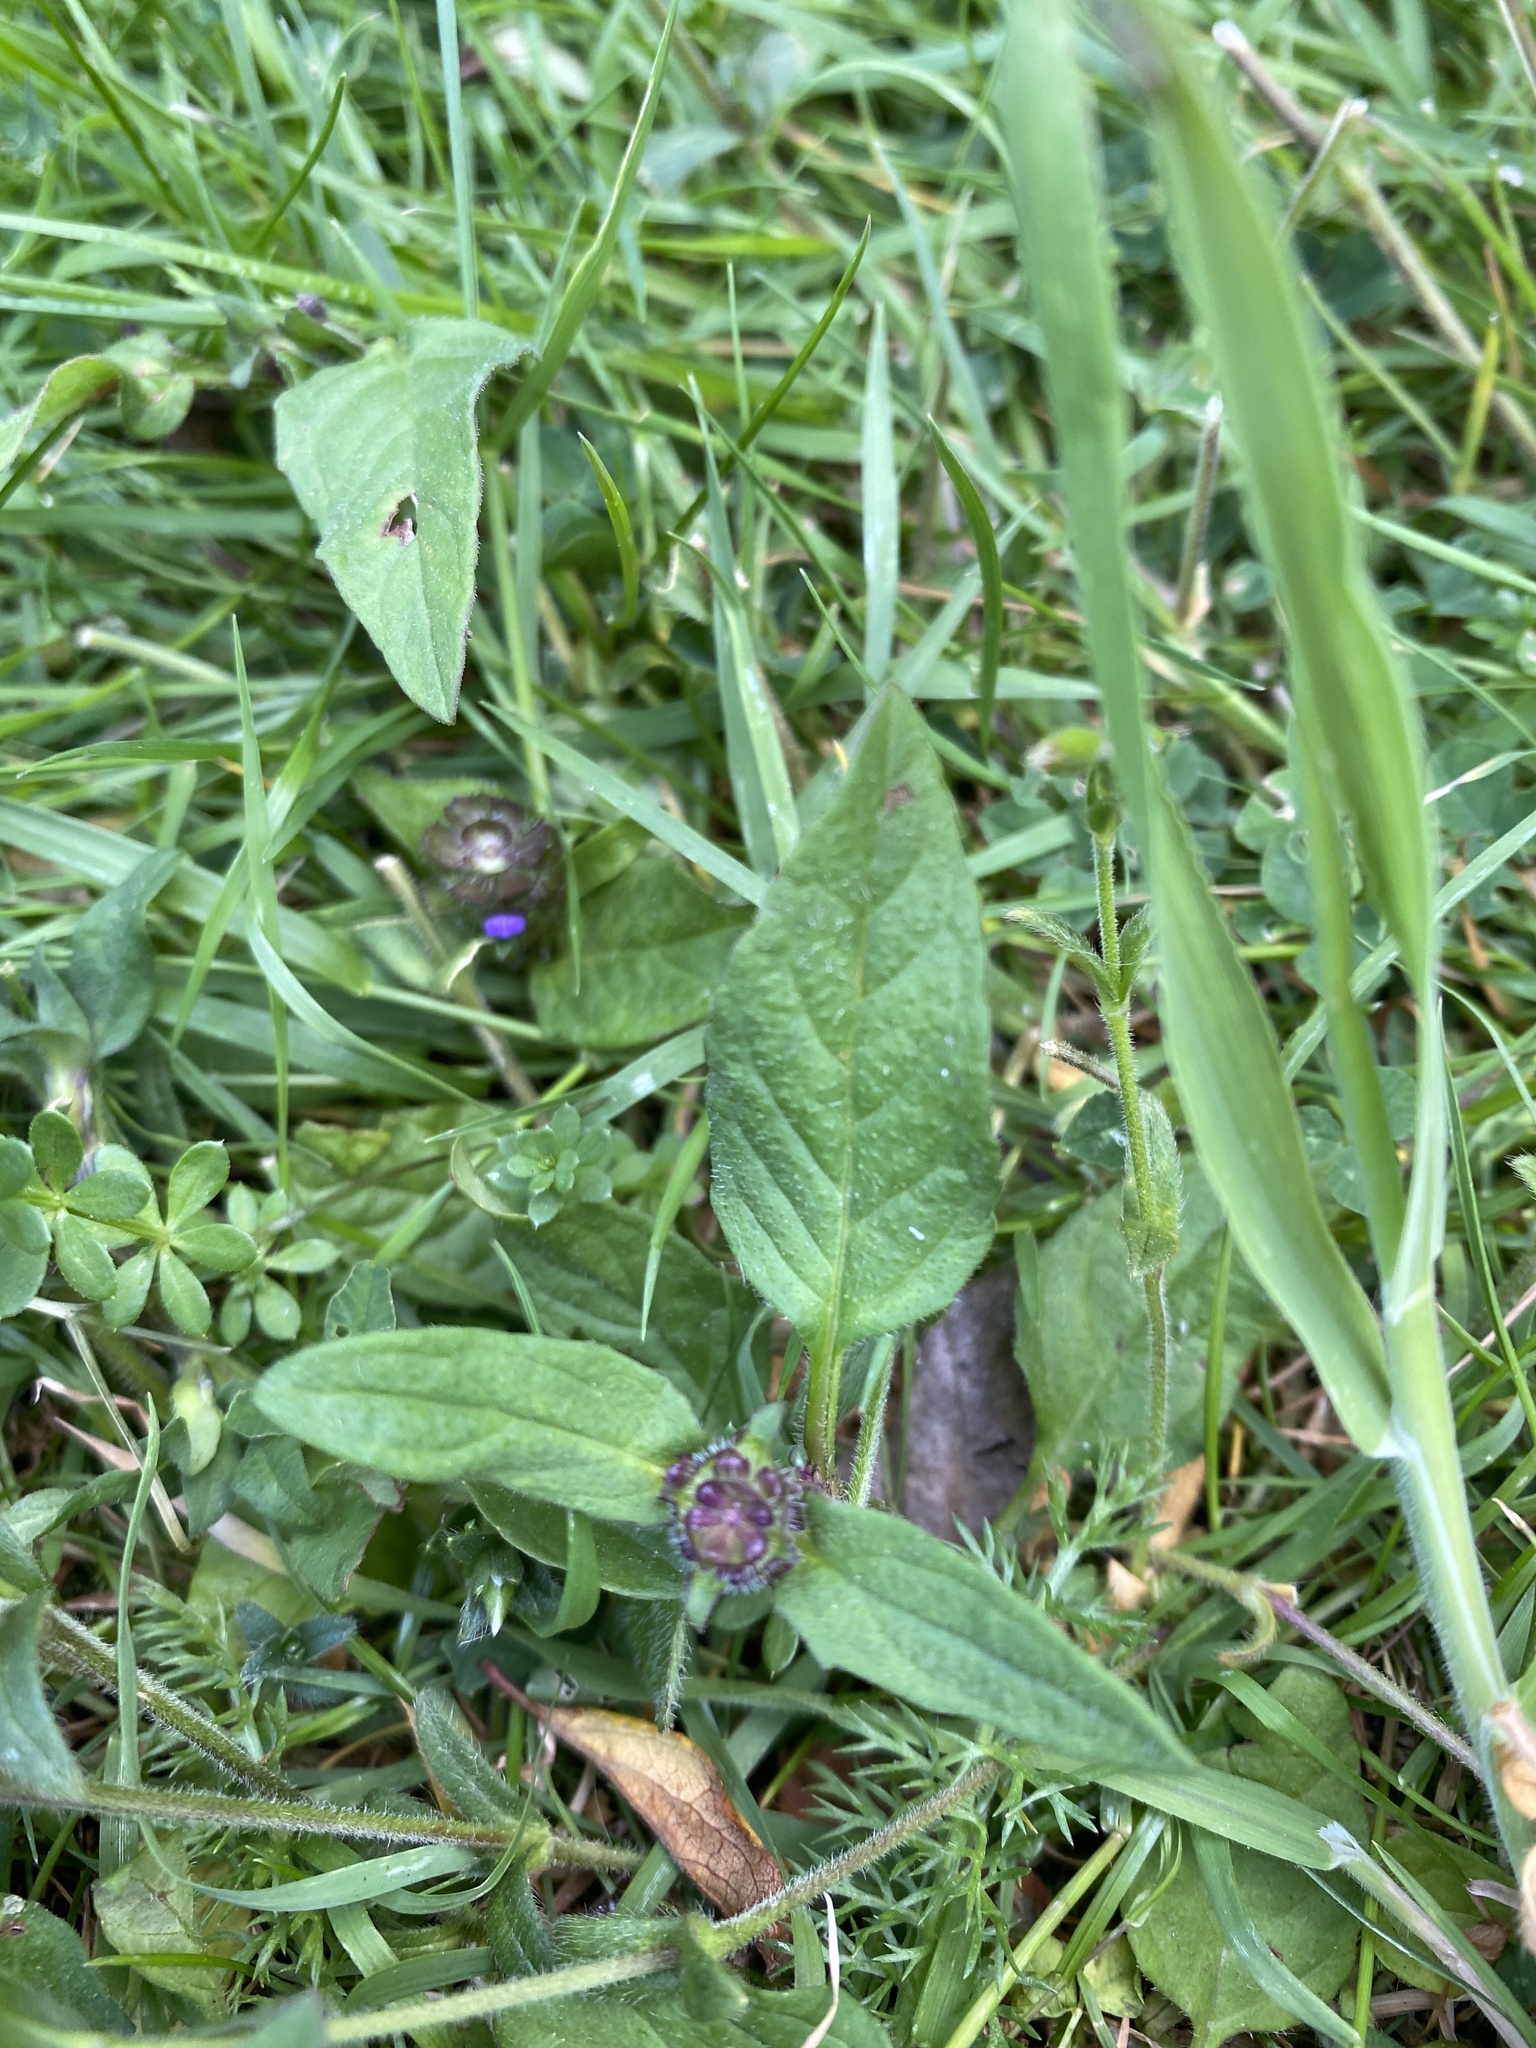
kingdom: Plantae
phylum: Tracheophyta
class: Magnoliopsida
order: Lamiales
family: Lamiaceae
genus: Prunella
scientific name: Prunella vulgaris
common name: Heal-all
